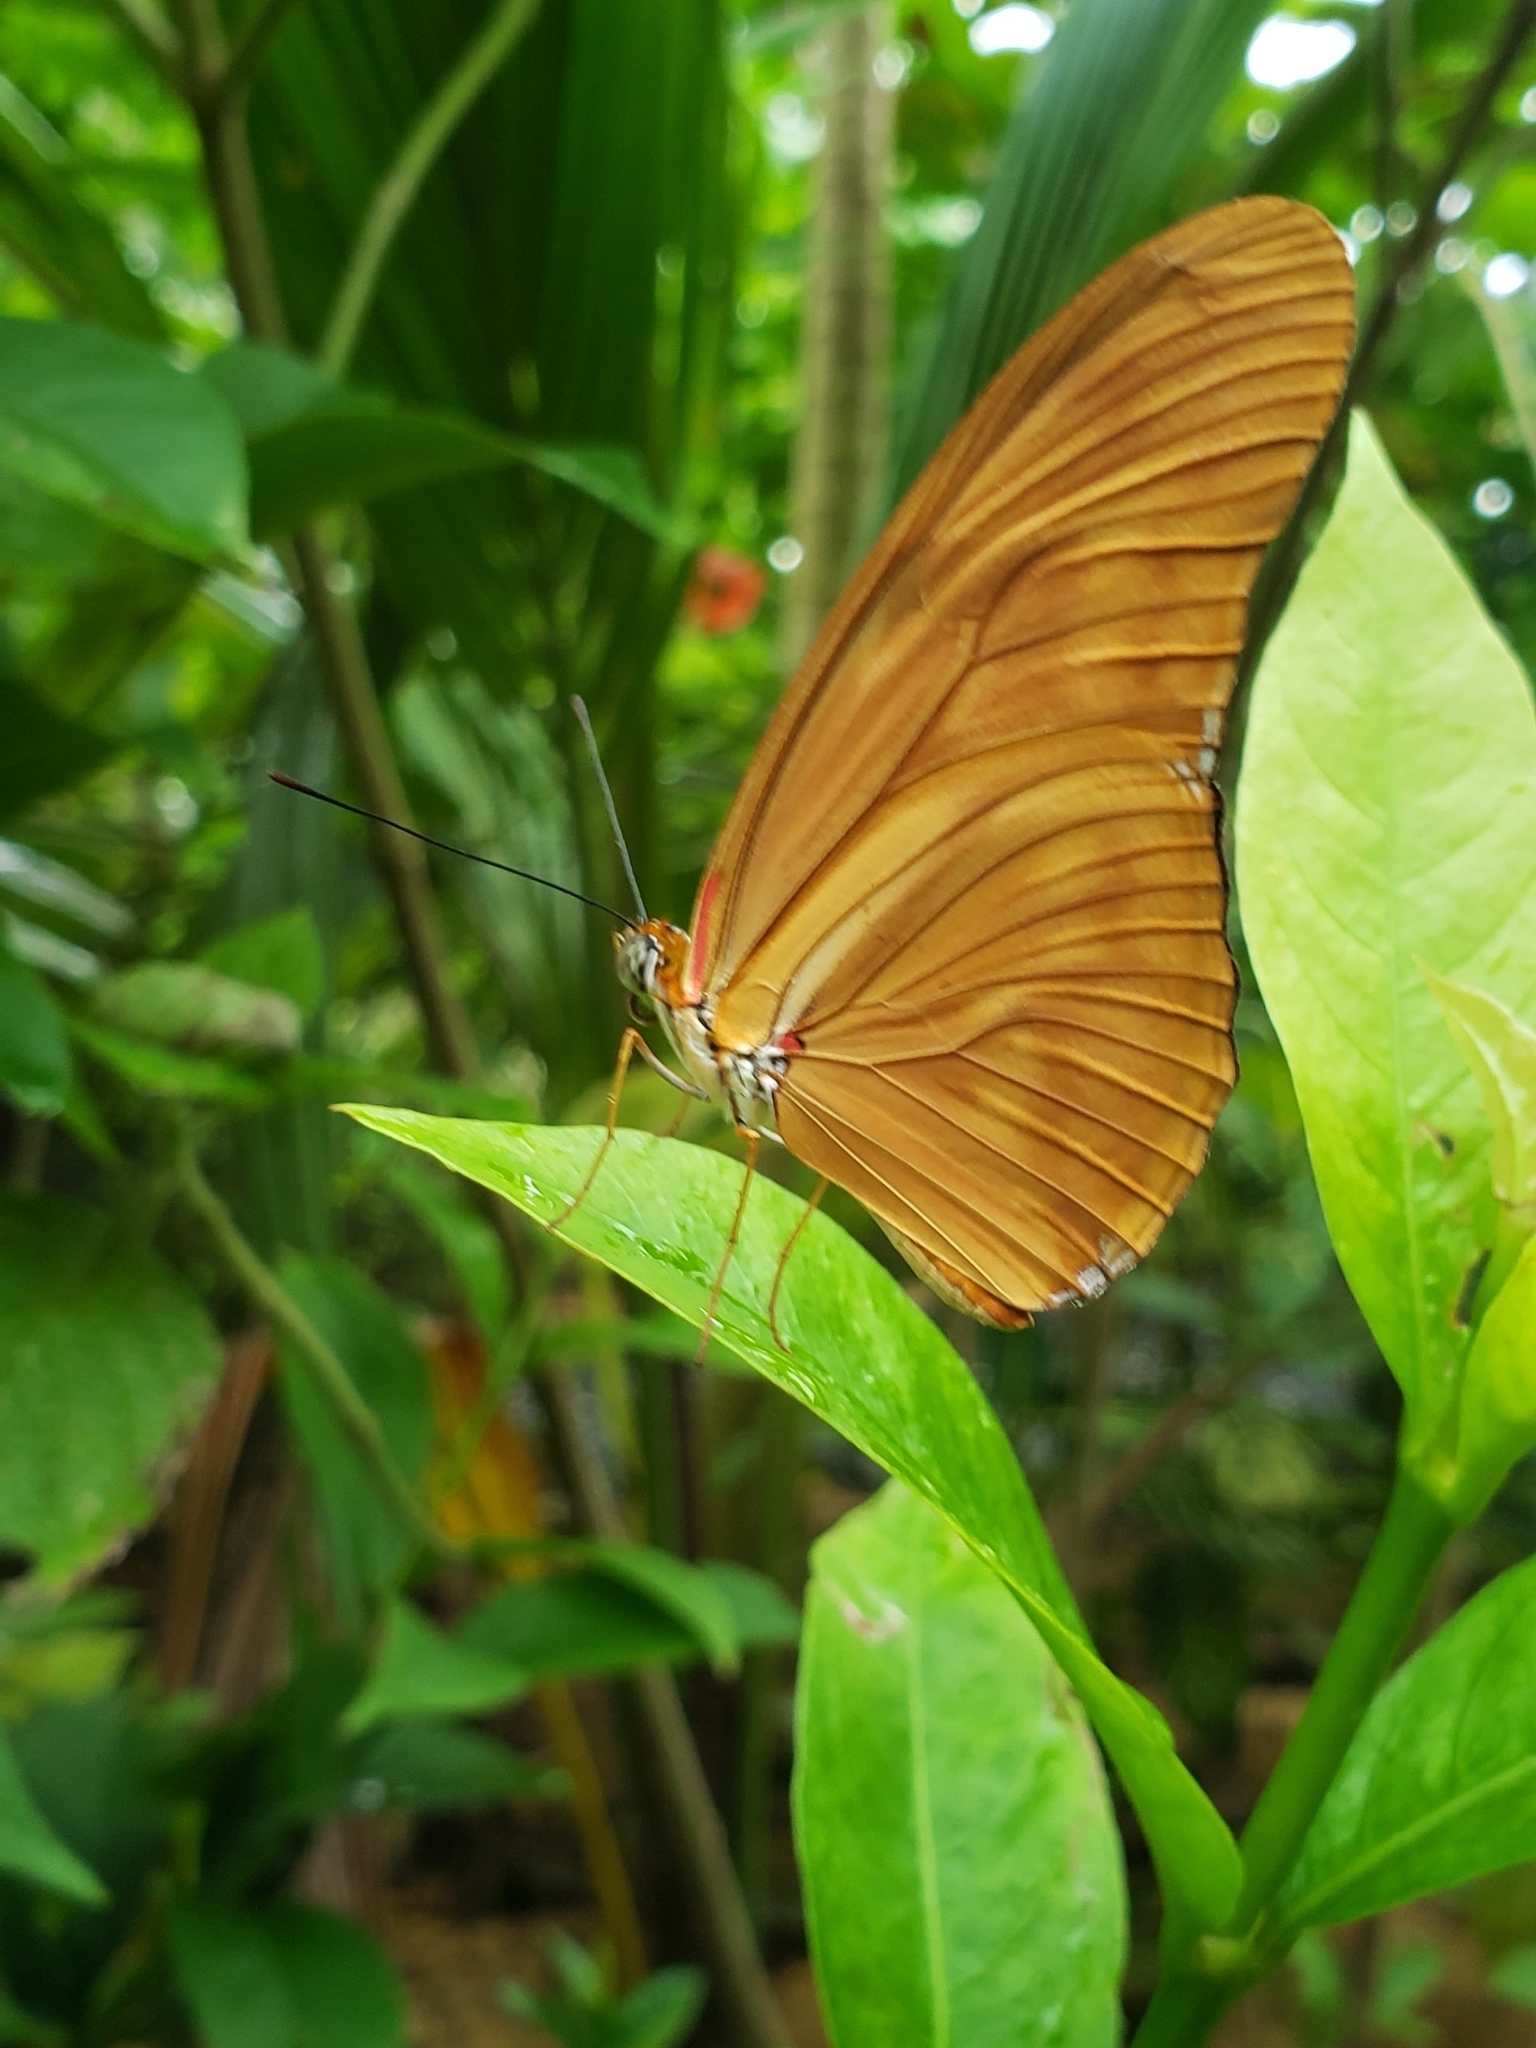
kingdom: Animalia
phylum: Arthropoda
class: Insecta
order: Lepidoptera
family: Nymphalidae
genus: Dryas
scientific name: Dryas iulia
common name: Flambeau
